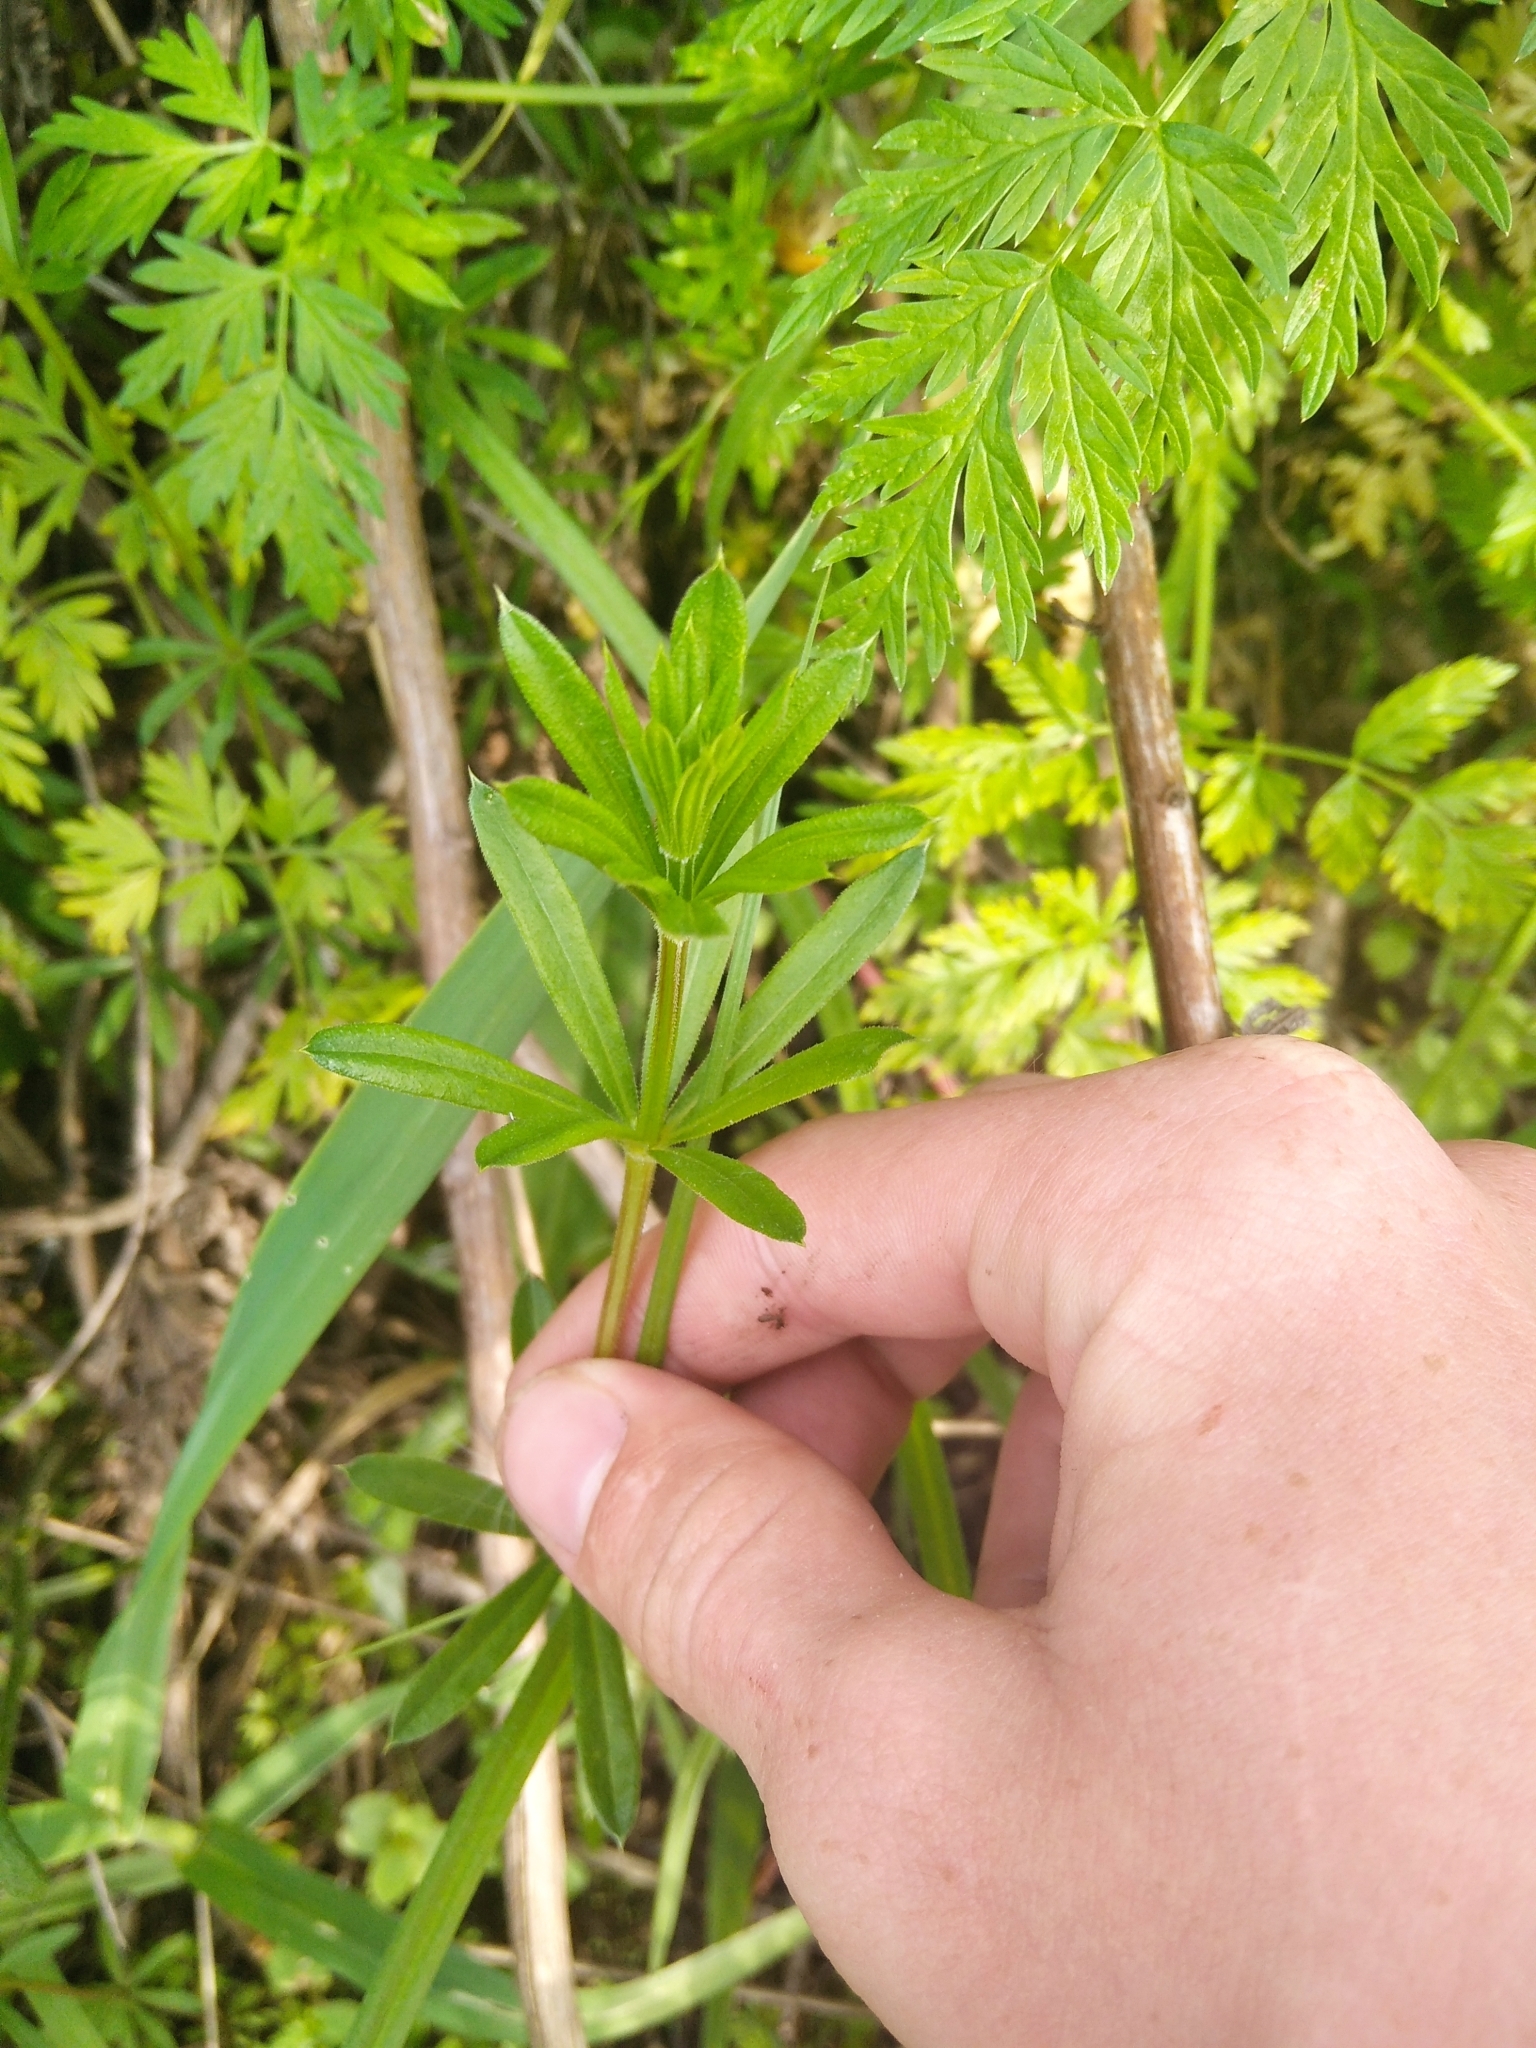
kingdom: Plantae
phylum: Tracheophyta
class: Magnoliopsida
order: Gentianales
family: Rubiaceae
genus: Galium
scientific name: Galium rivale
